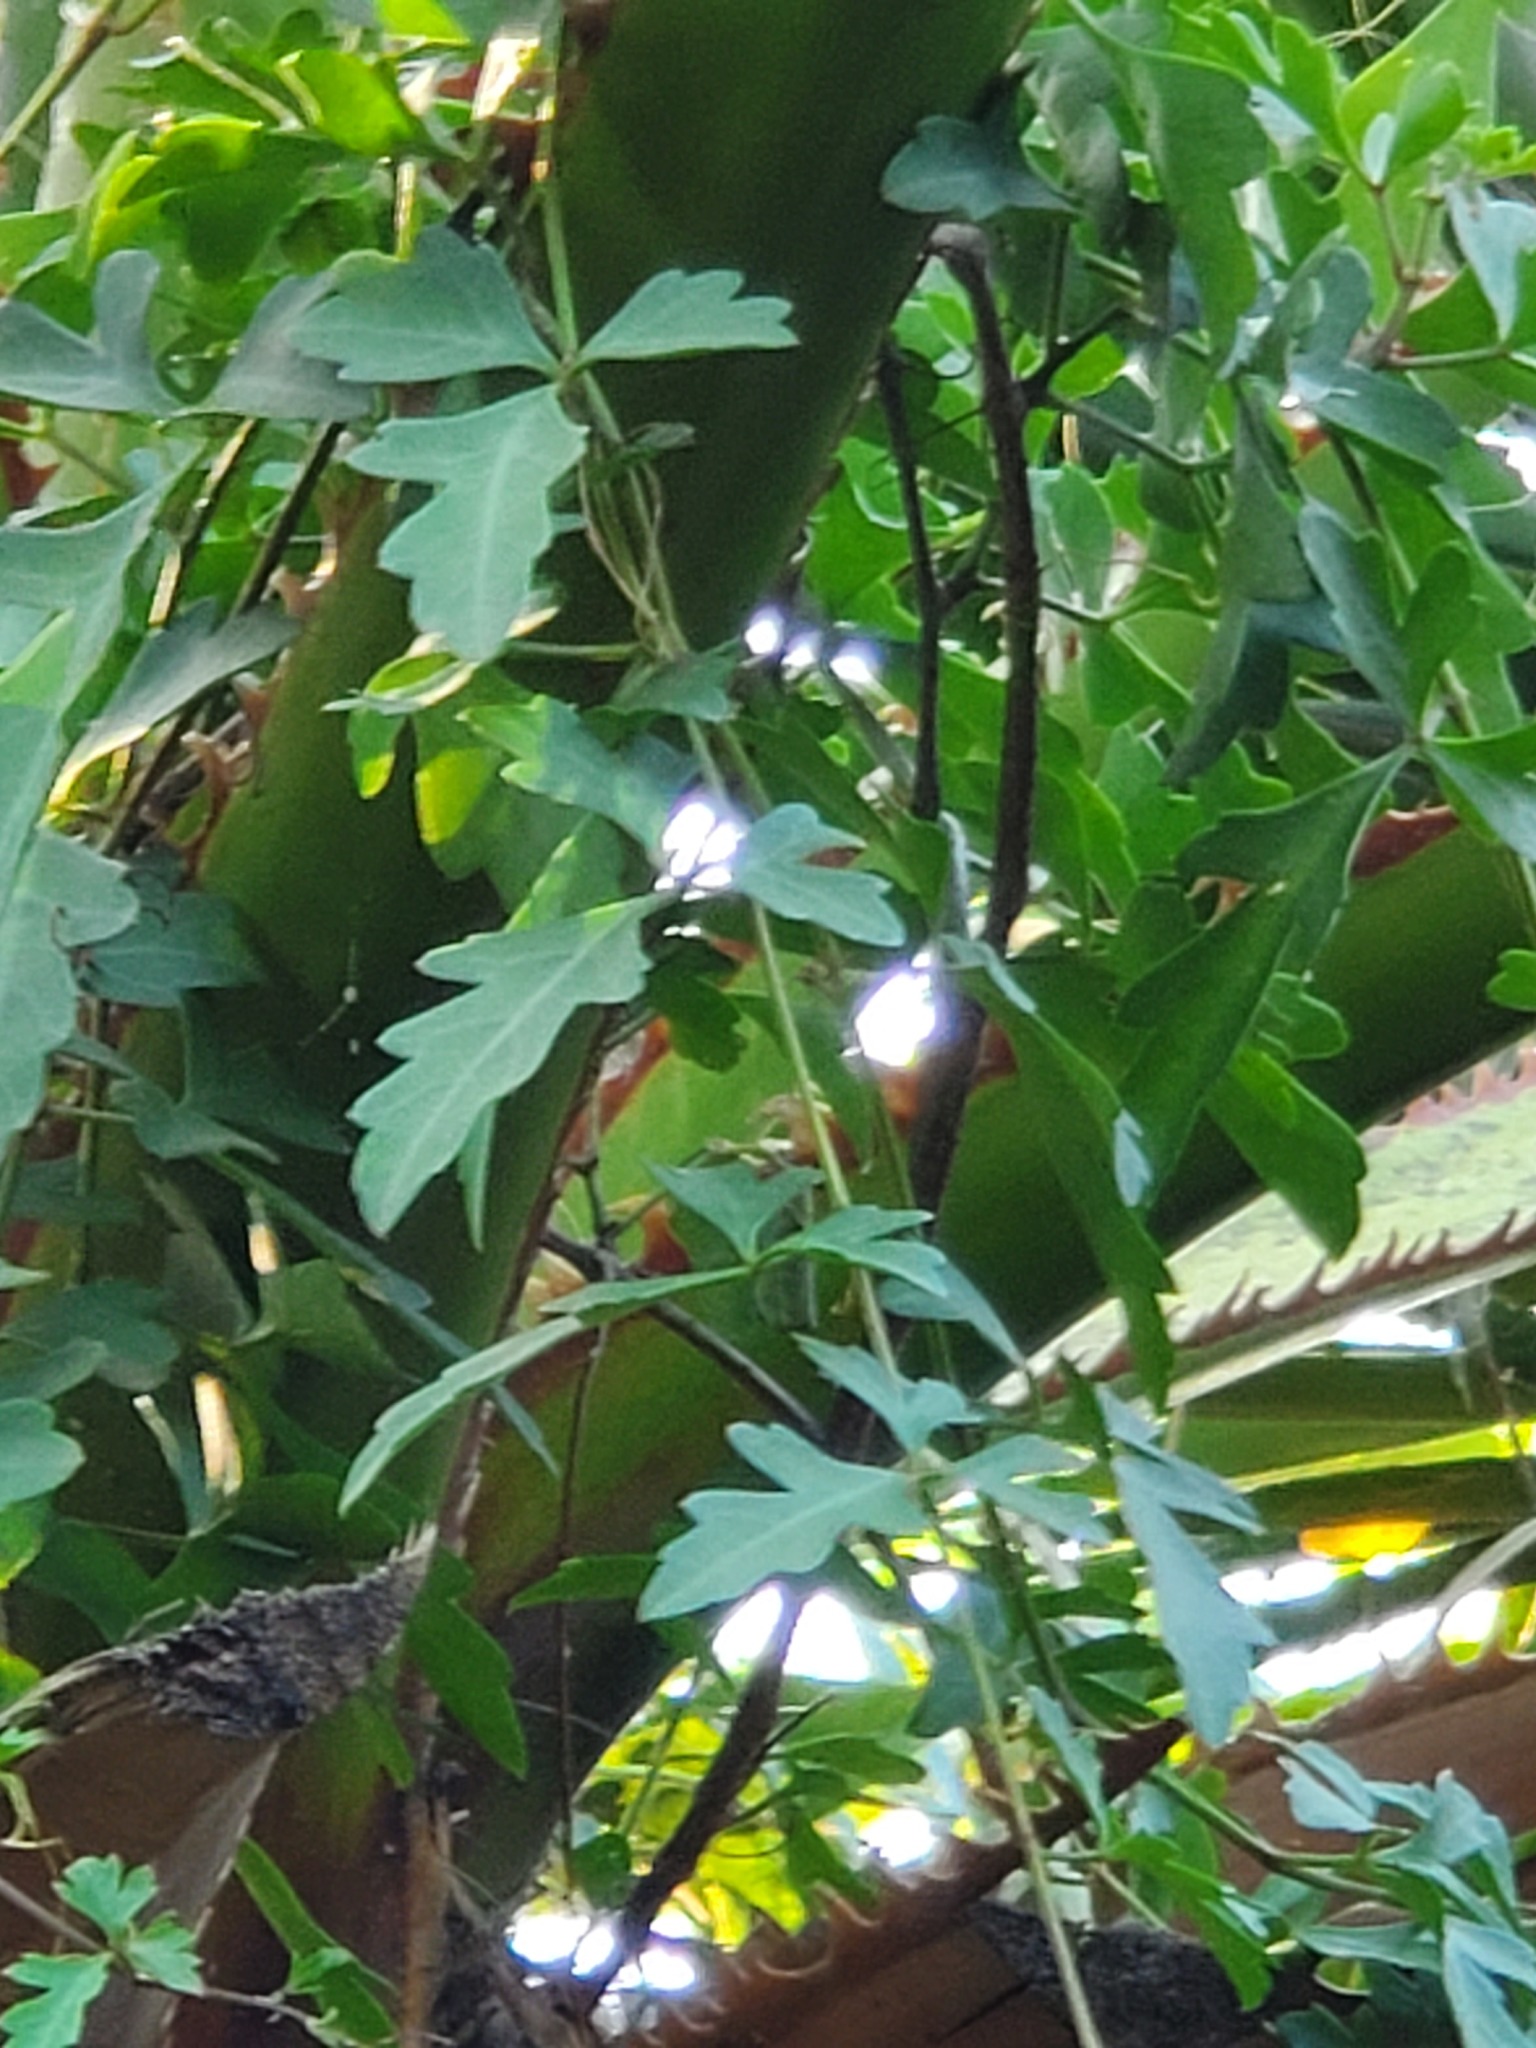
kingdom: Plantae
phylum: Tracheophyta
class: Magnoliopsida
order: Vitales
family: Vitaceae
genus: Cissus
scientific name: Cissus trifoliata
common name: Vine-sorrel
